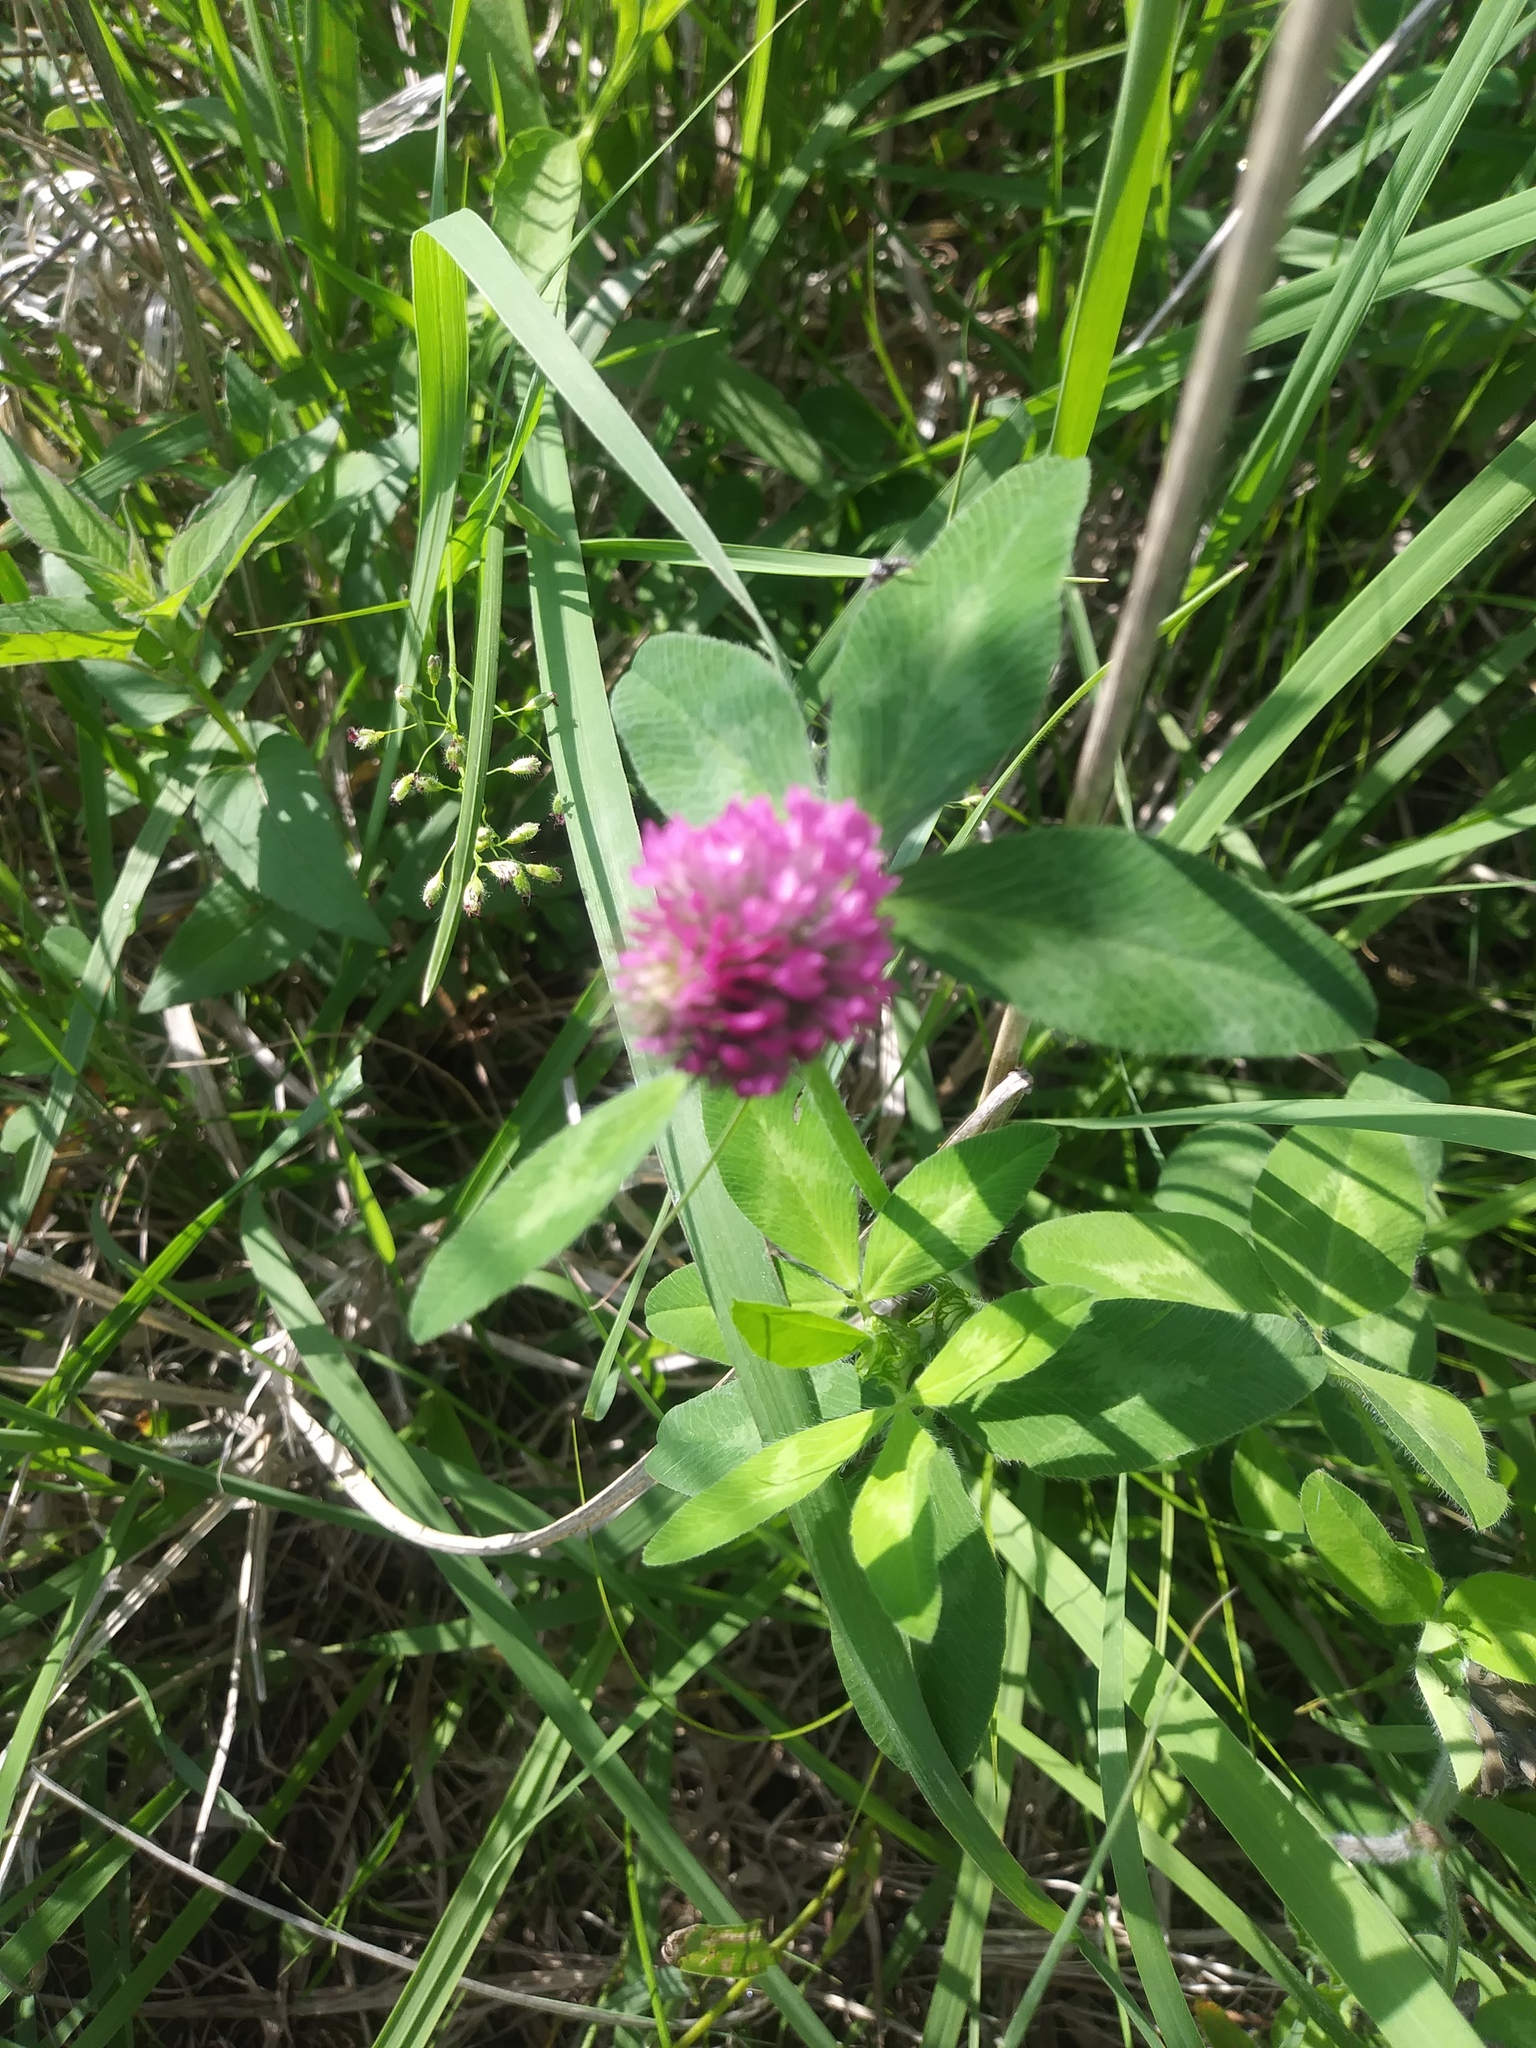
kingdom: Plantae
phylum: Tracheophyta
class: Magnoliopsida
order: Fabales
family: Fabaceae
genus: Trifolium
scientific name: Trifolium pratense
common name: Red clover
